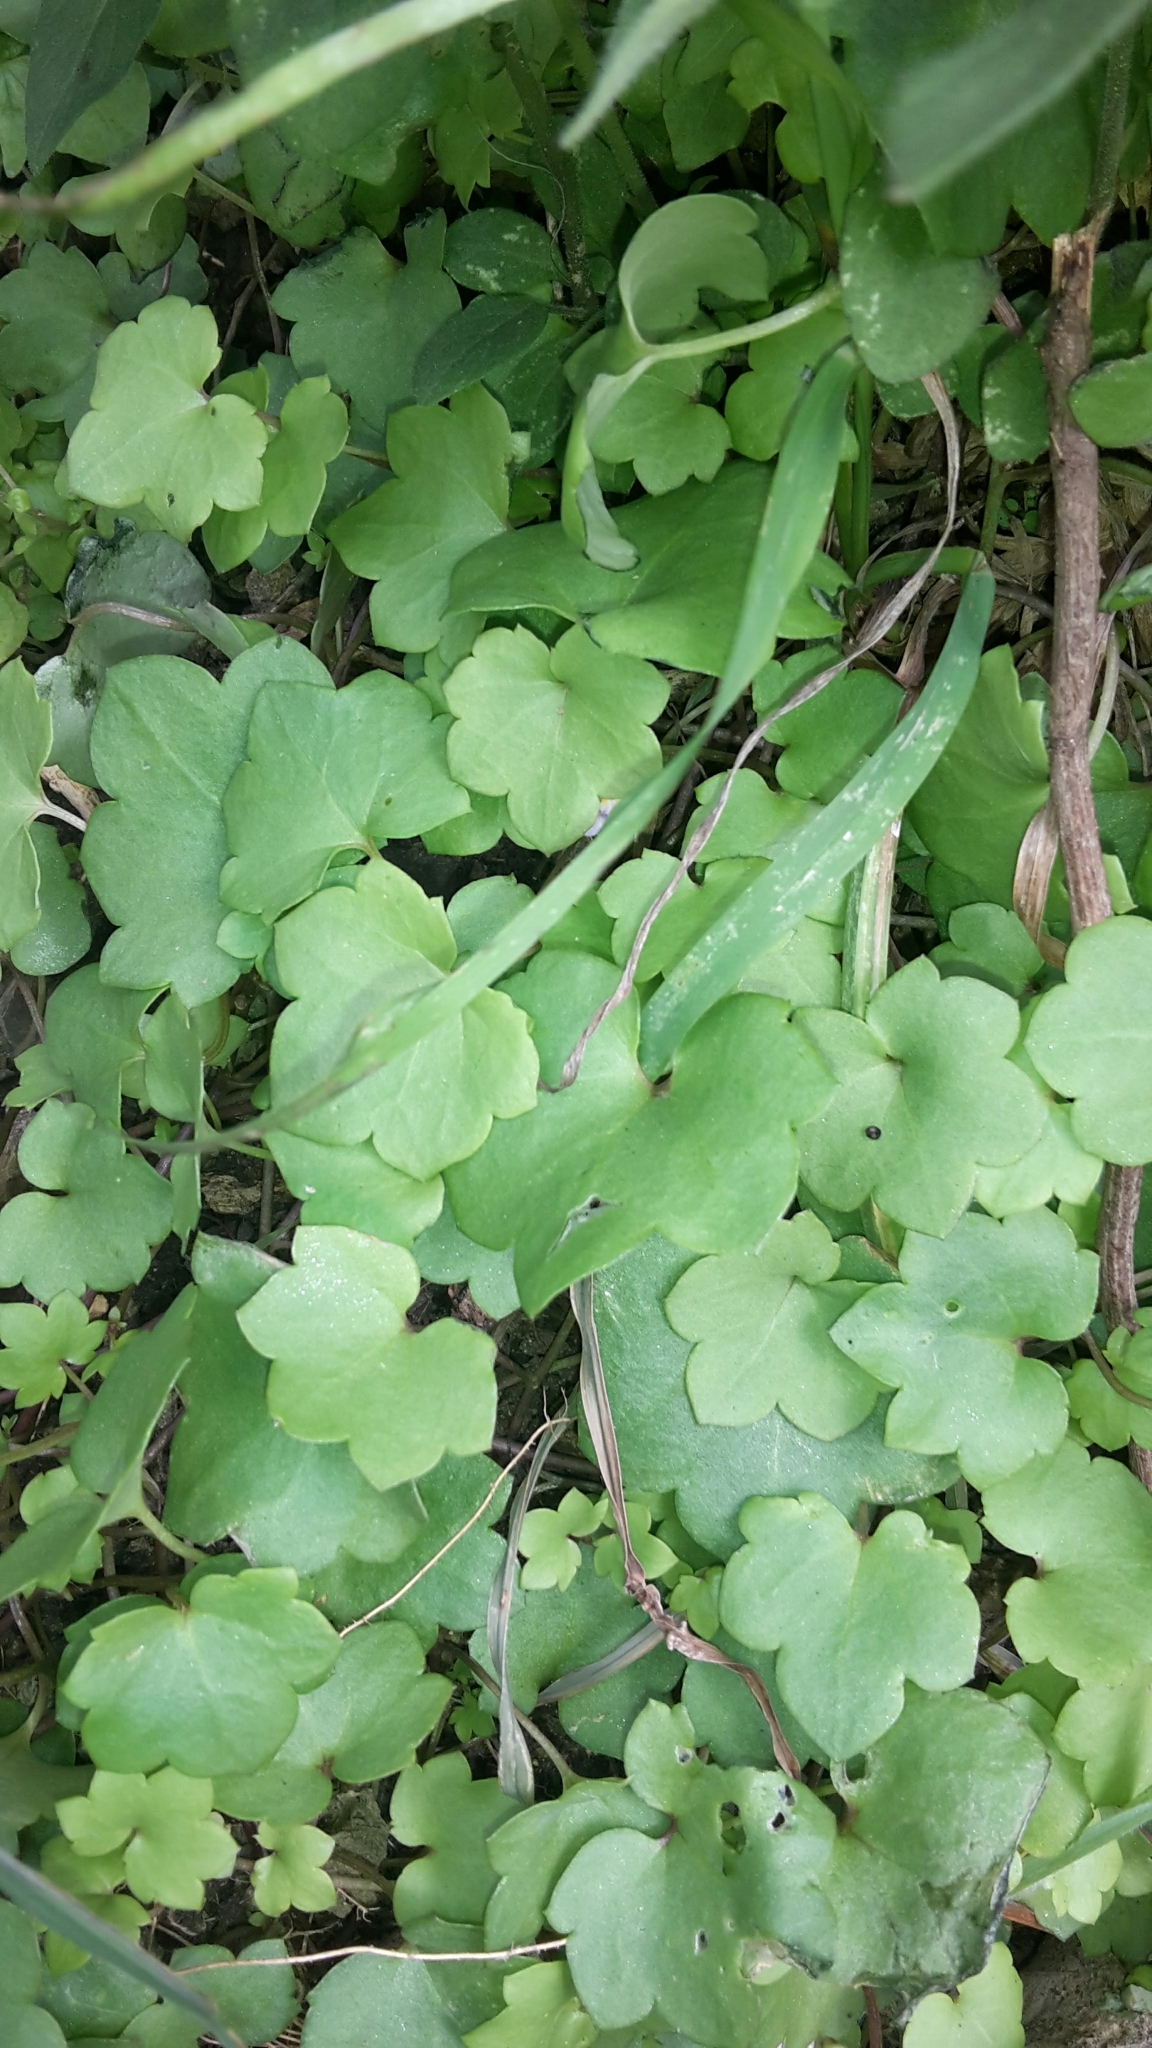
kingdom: Plantae
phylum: Tracheophyta
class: Magnoliopsida
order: Lamiales
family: Plantaginaceae
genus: Cymbalaria
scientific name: Cymbalaria muralis
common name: Ivy-leaved toadflax
